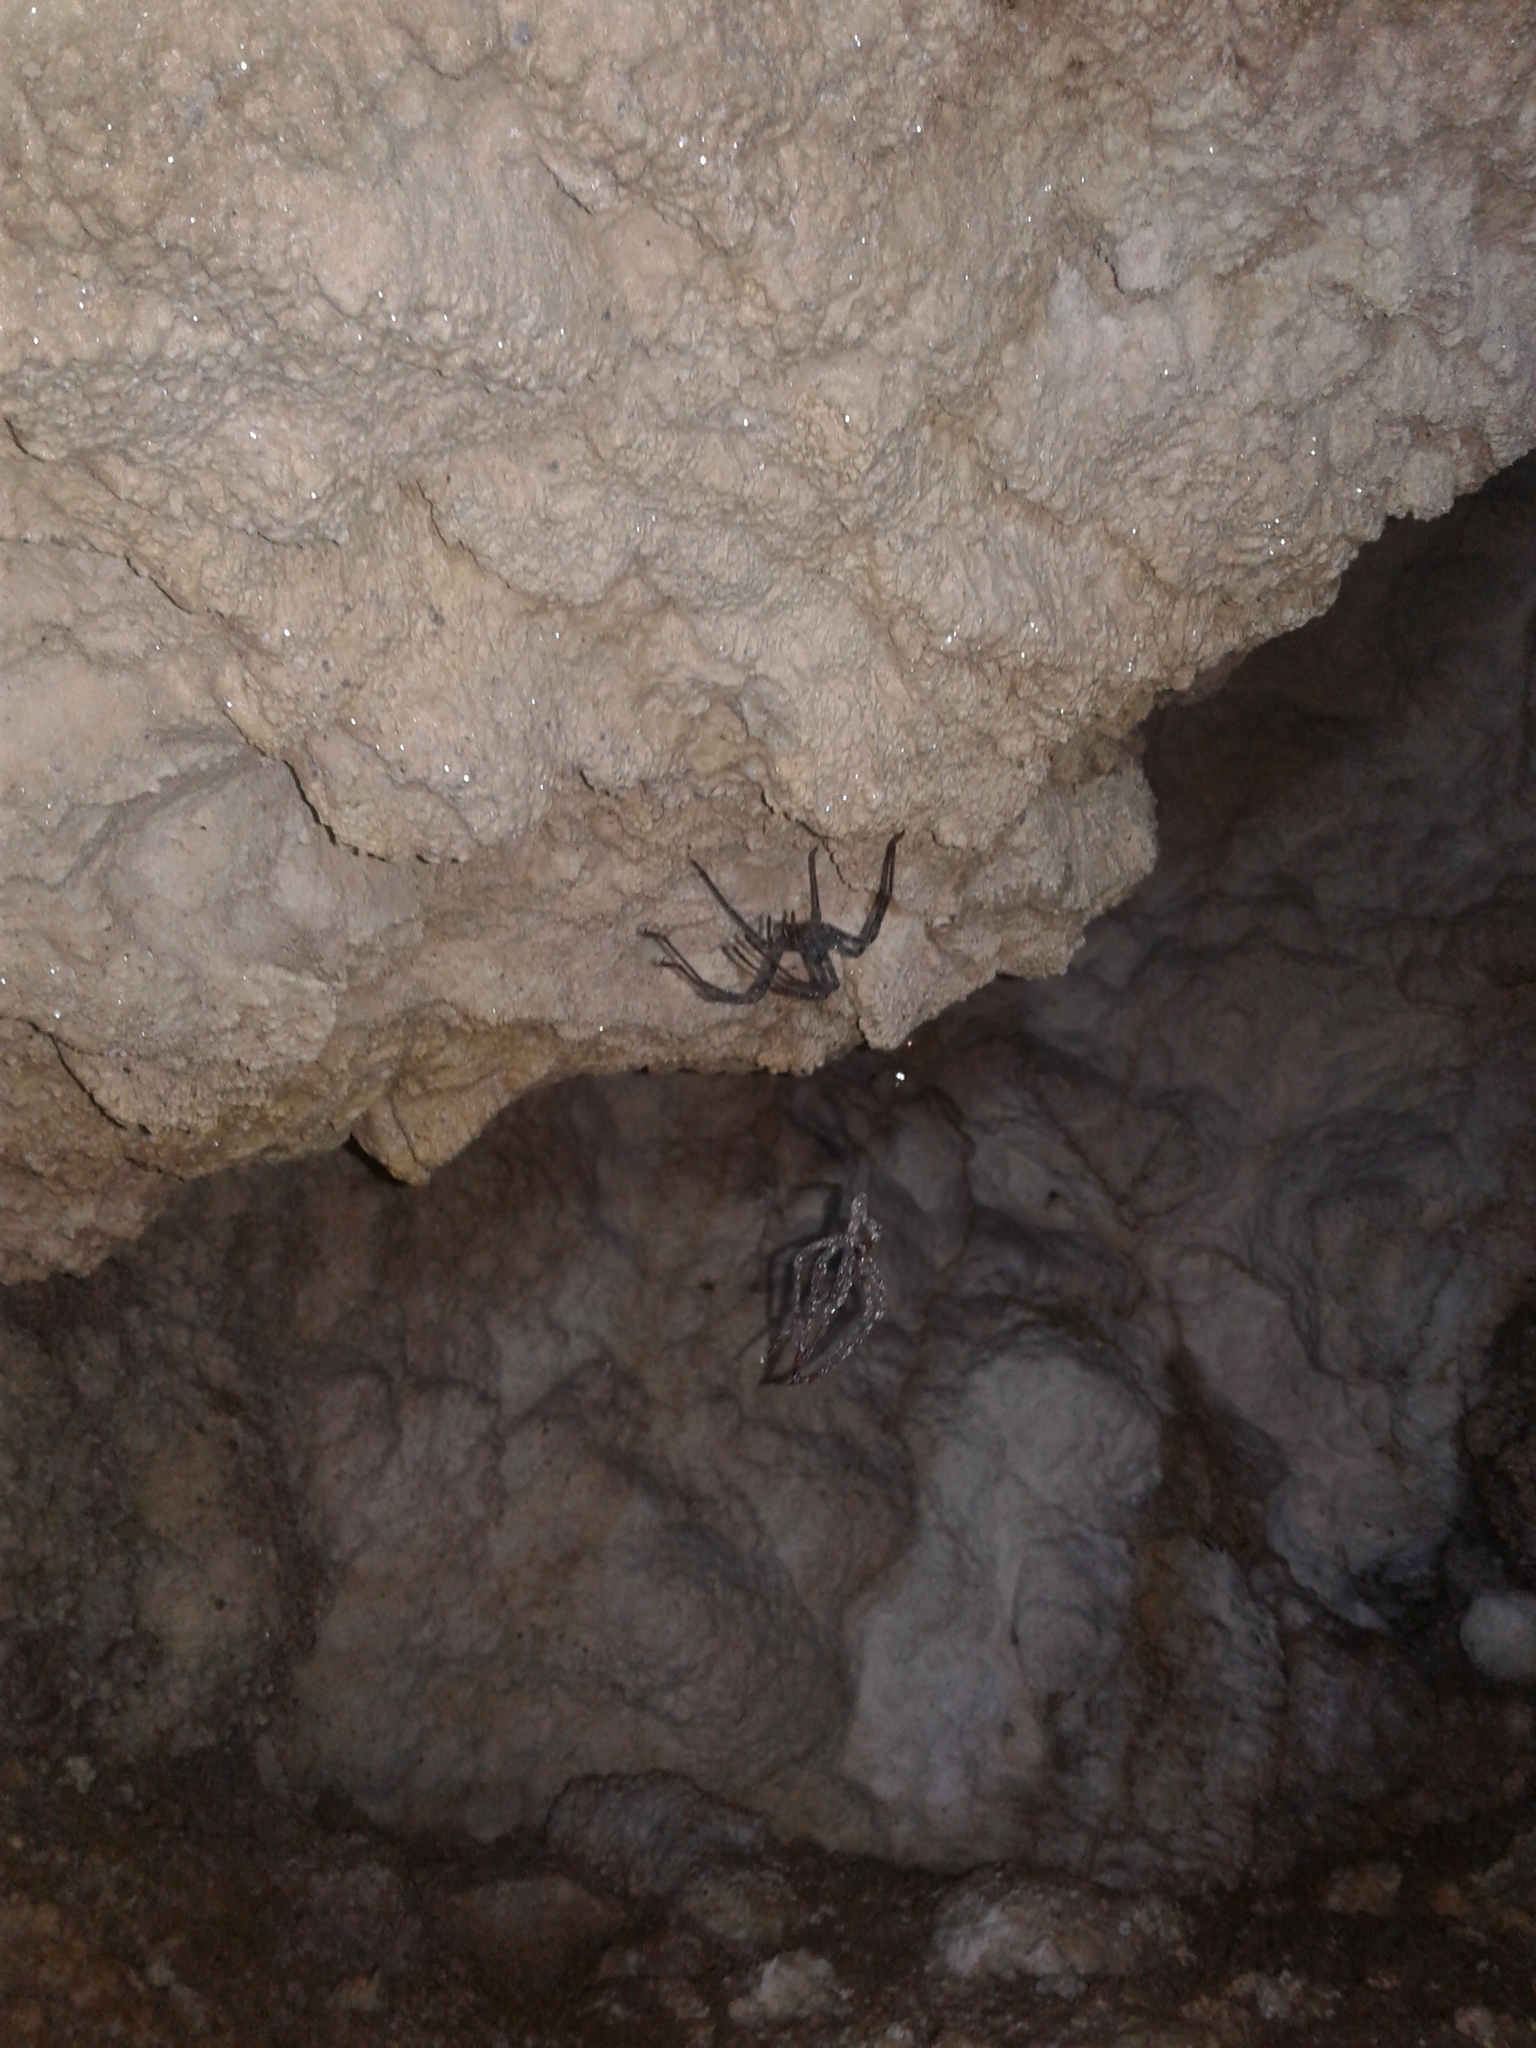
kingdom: Animalia
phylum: Arthropoda
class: Arachnida
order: Araneae
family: Gradungulidae
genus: Spelungula
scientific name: Spelungula cavernicola
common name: Nelson cave spider
